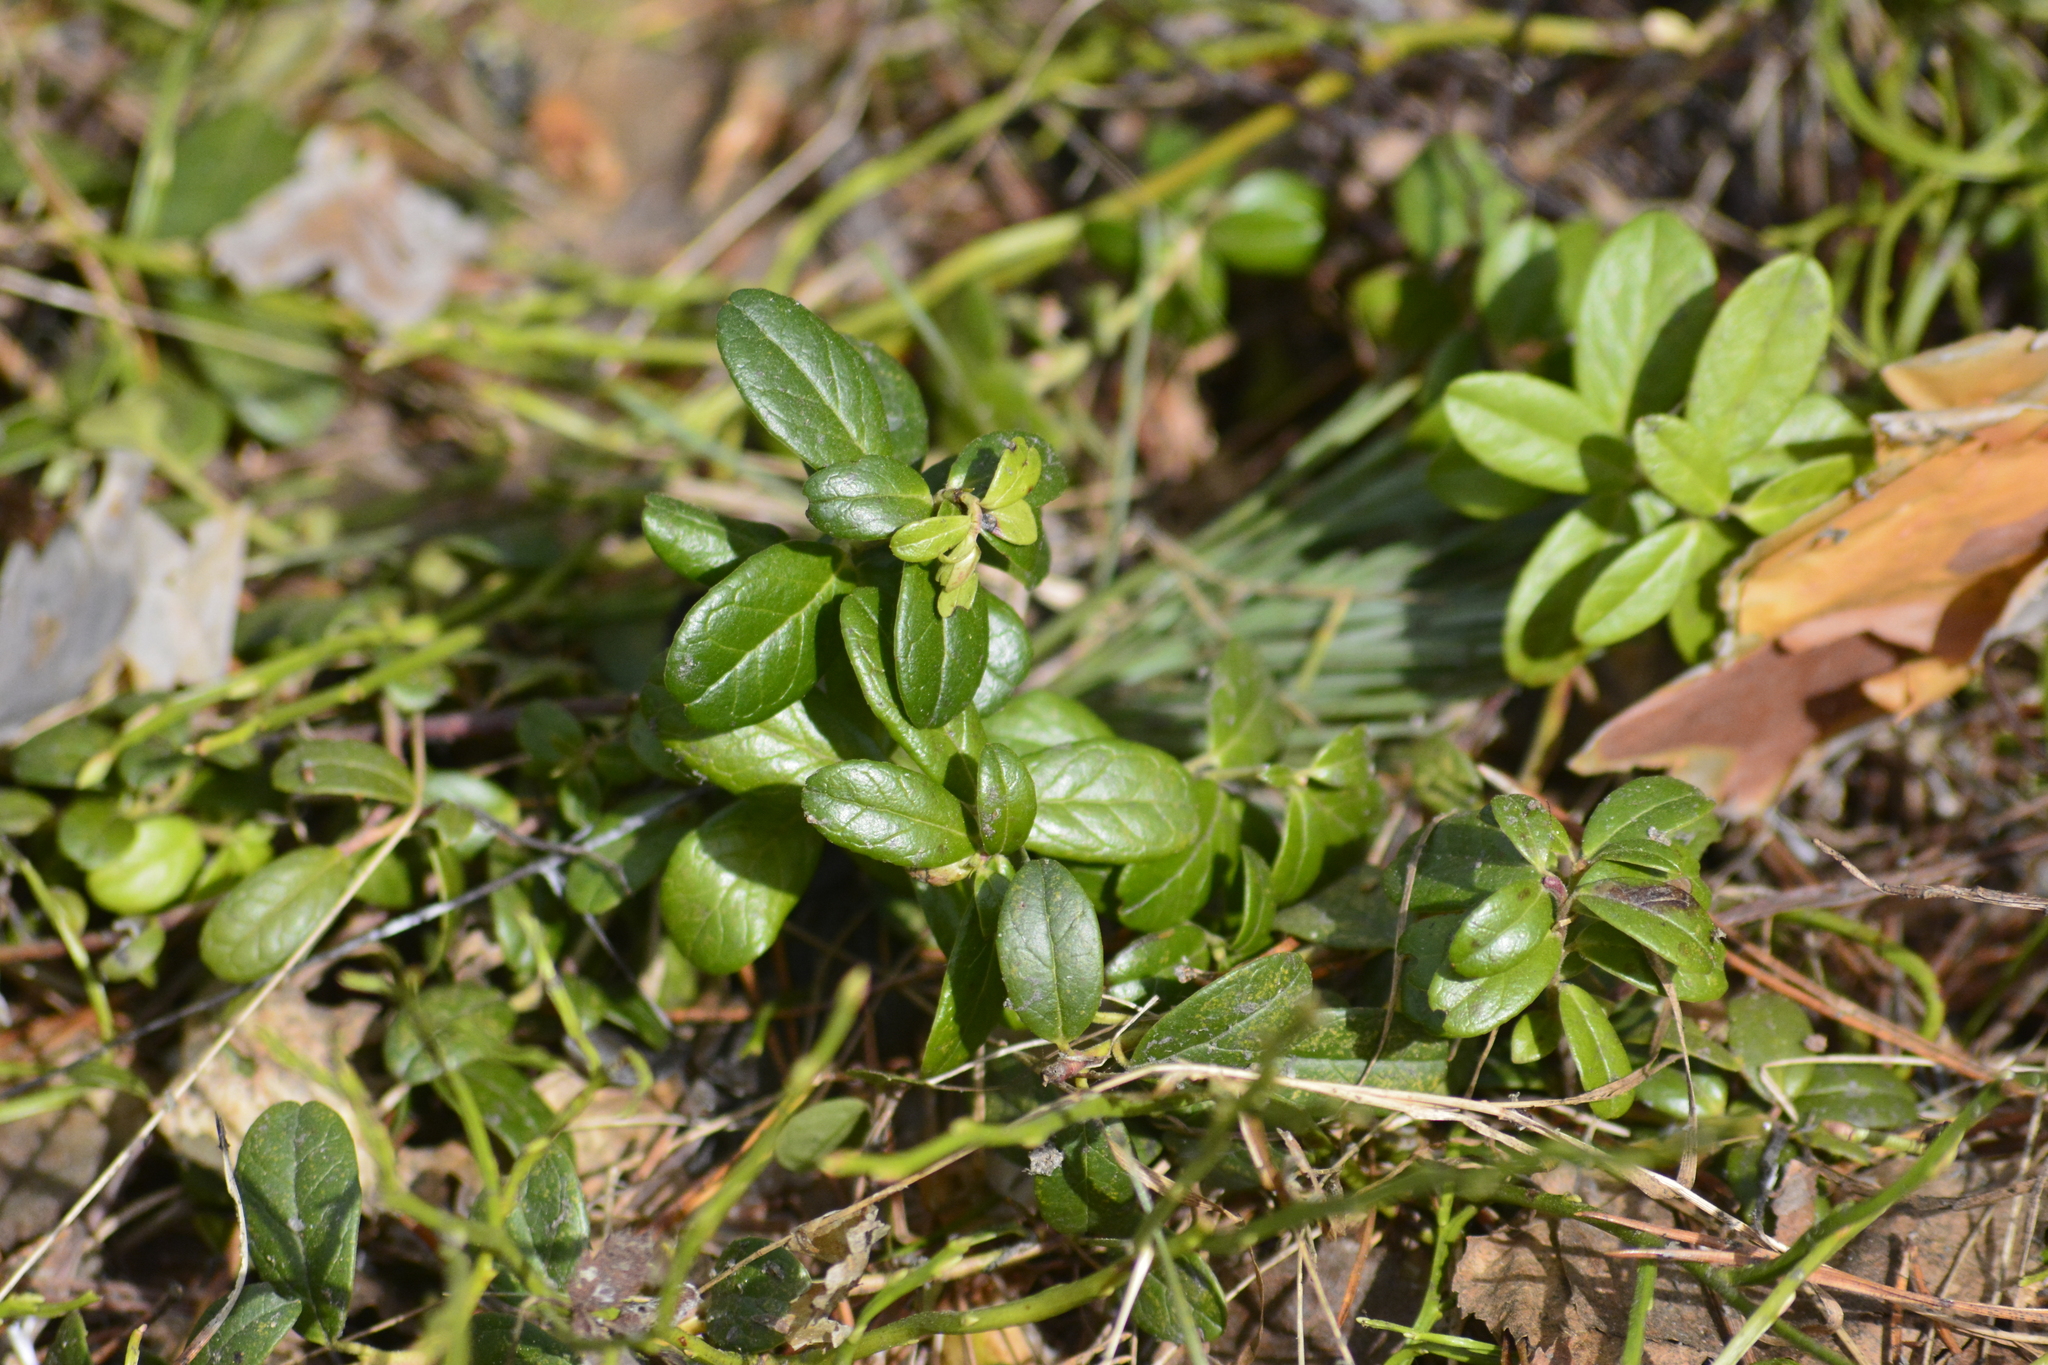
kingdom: Plantae
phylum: Tracheophyta
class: Magnoliopsida
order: Ericales
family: Ericaceae
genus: Vaccinium
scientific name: Vaccinium vitis-idaea
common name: Cowberry
